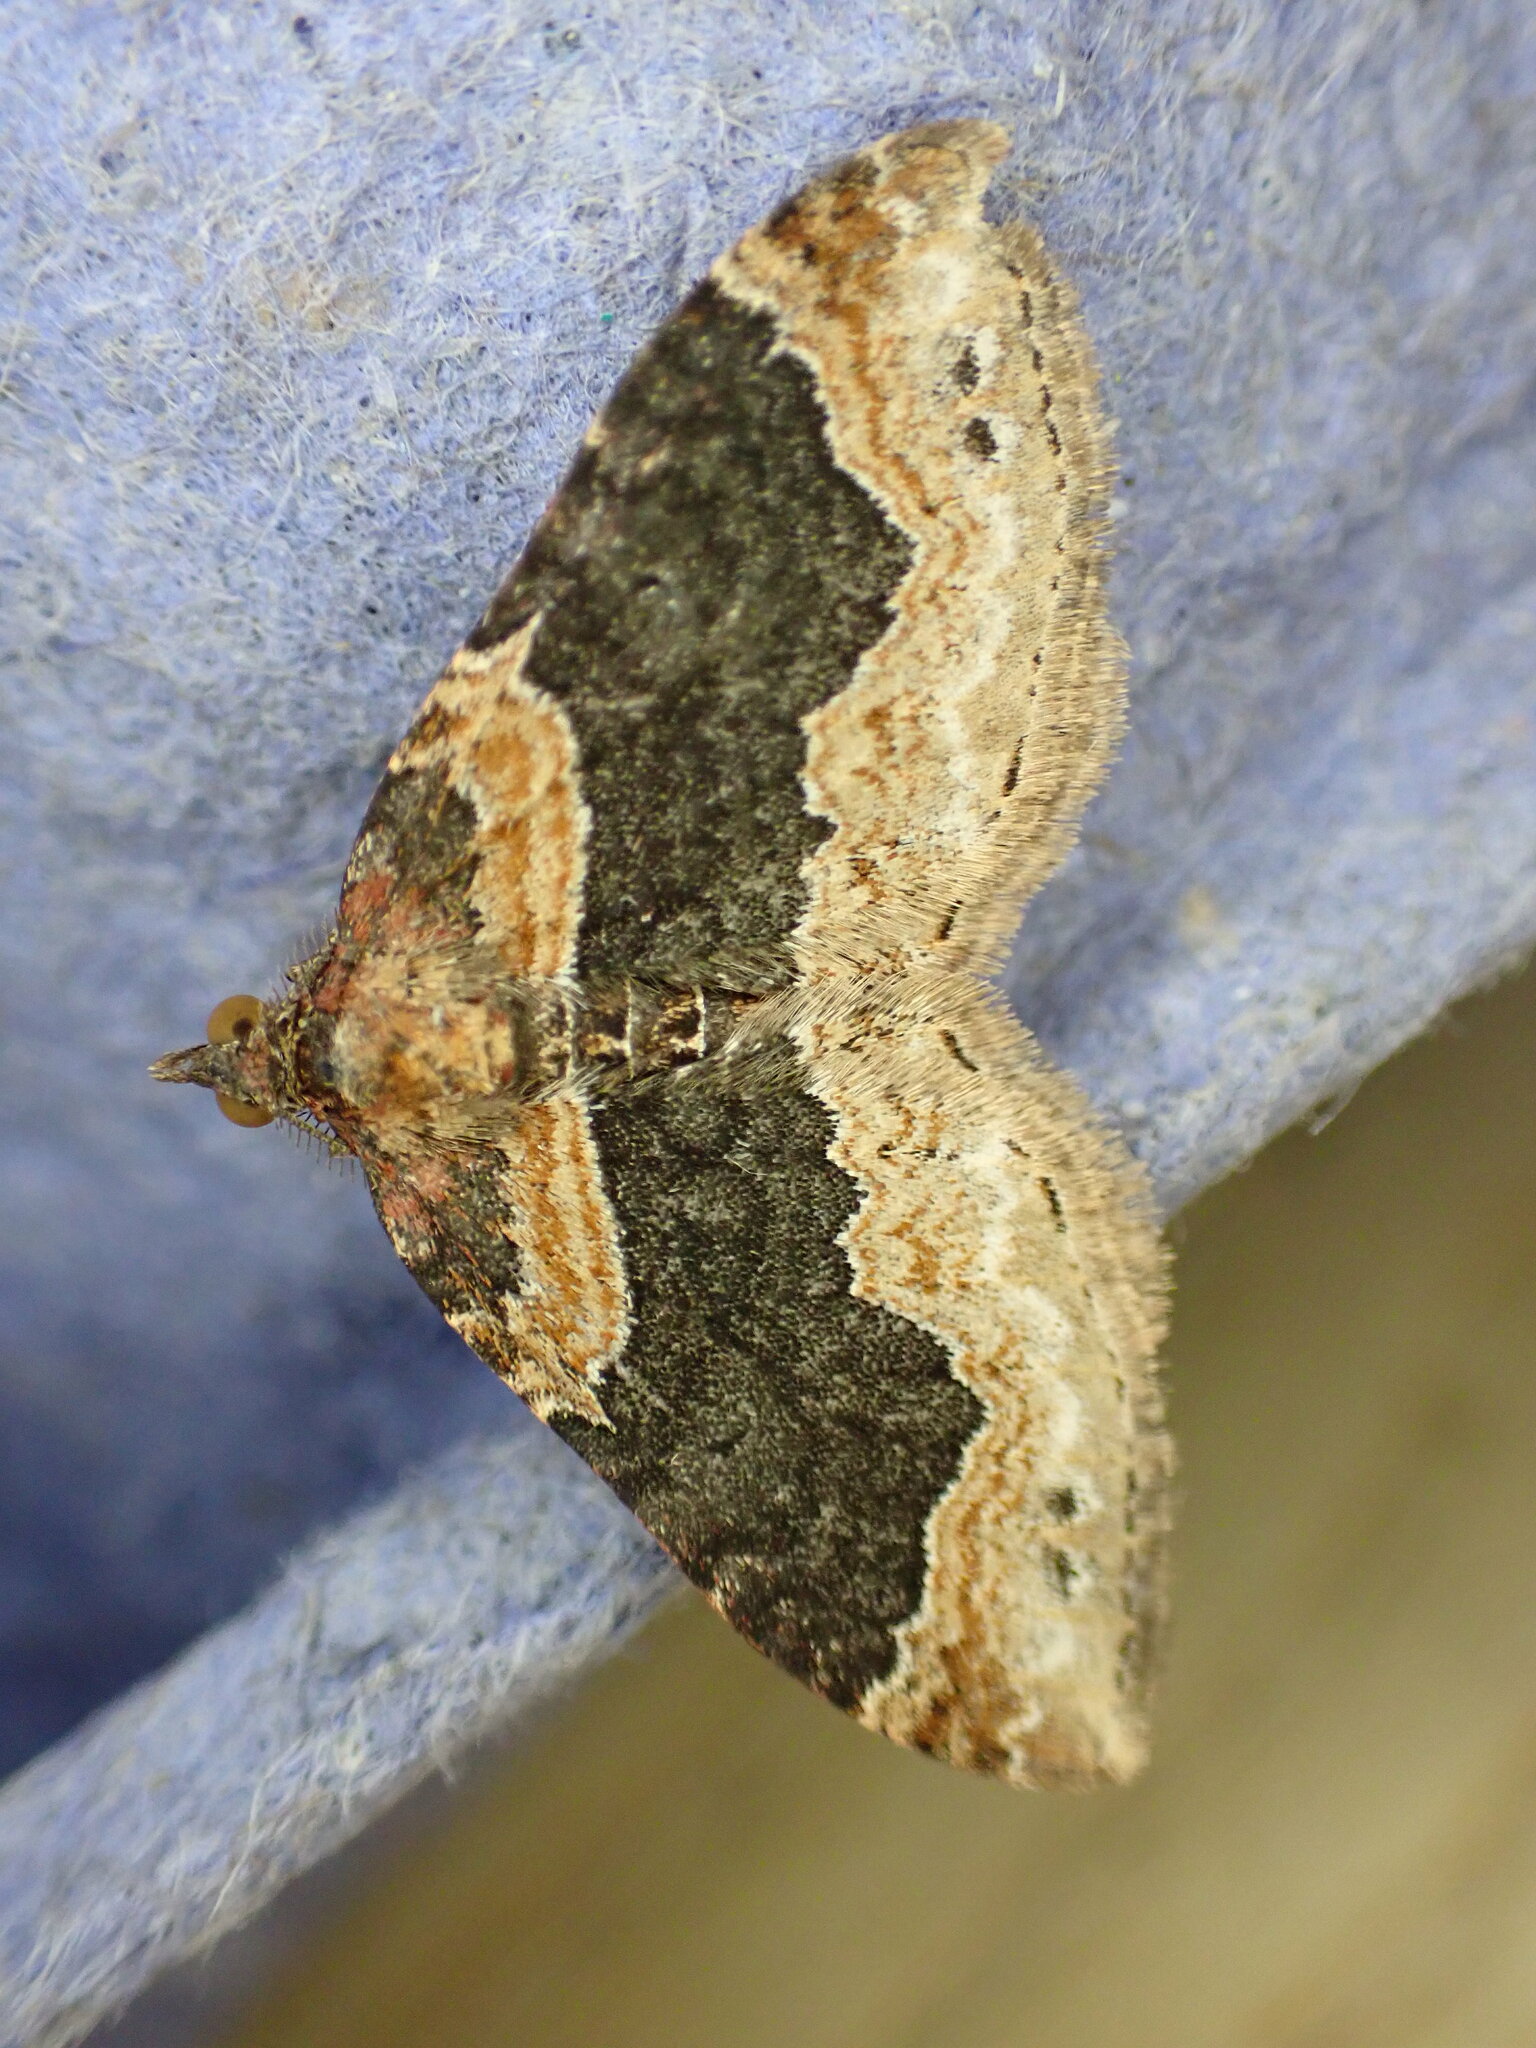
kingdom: Animalia
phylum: Arthropoda
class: Insecta
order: Lepidoptera
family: Geometridae
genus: Xanthorhoe
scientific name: Xanthorhoe ferrugata
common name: Dark-barred twin-spot carpet
